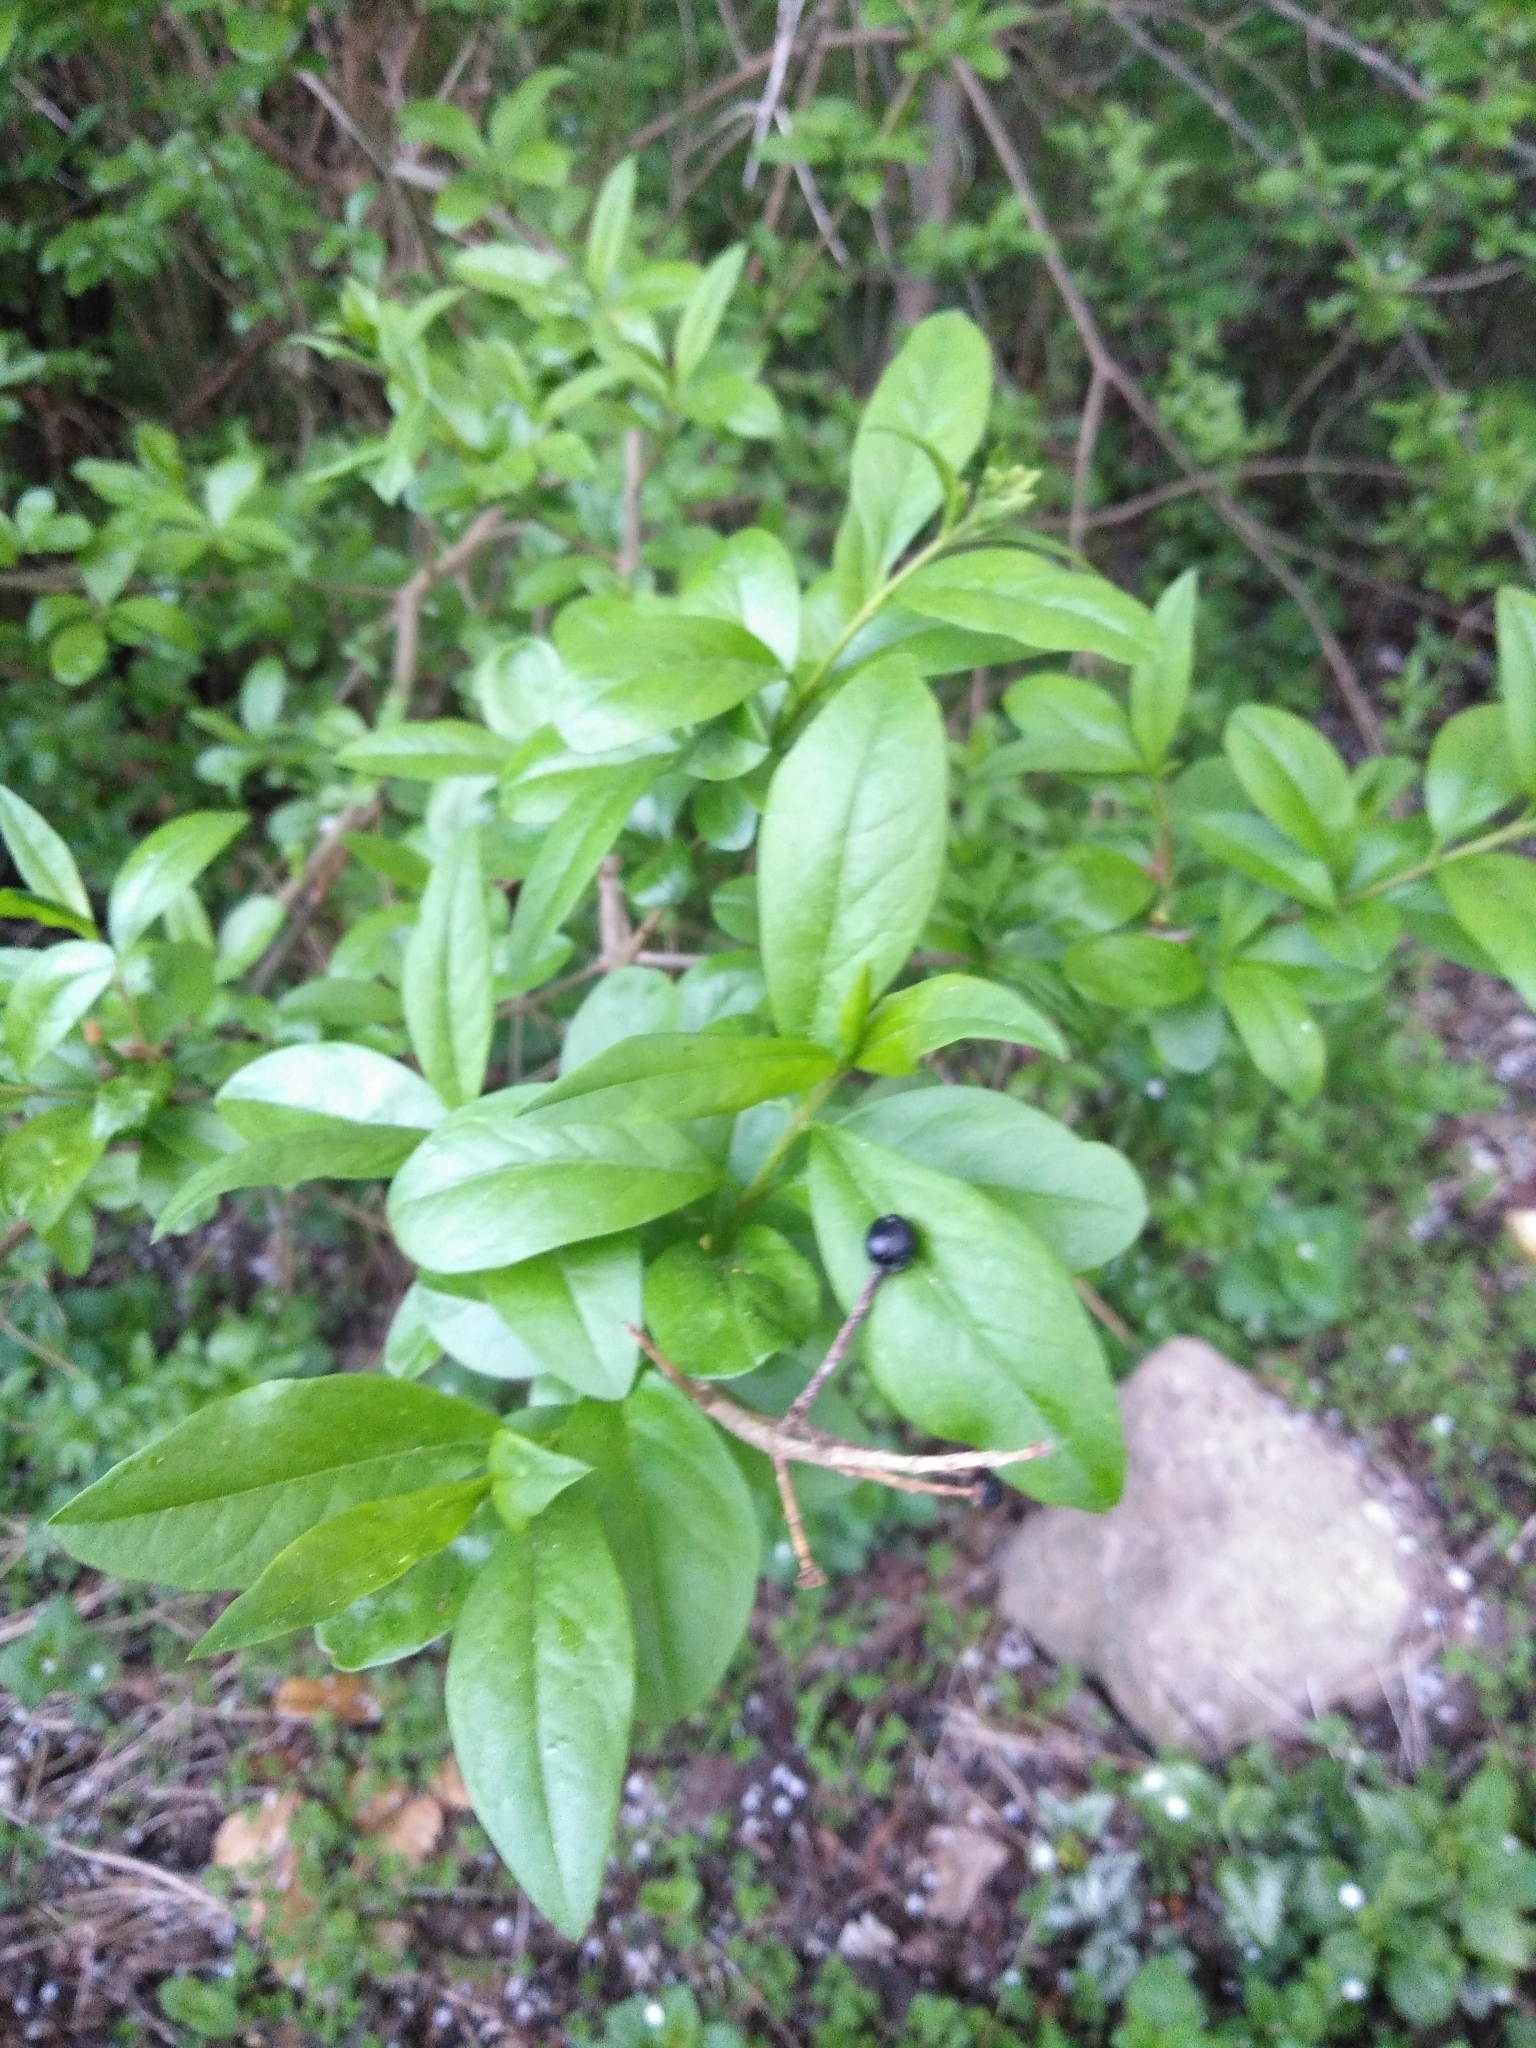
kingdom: Plantae
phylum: Tracheophyta
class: Magnoliopsida
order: Lamiales
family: Oleaceae
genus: Ligustrum
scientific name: Ligustrum vulgare
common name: Wild privet
